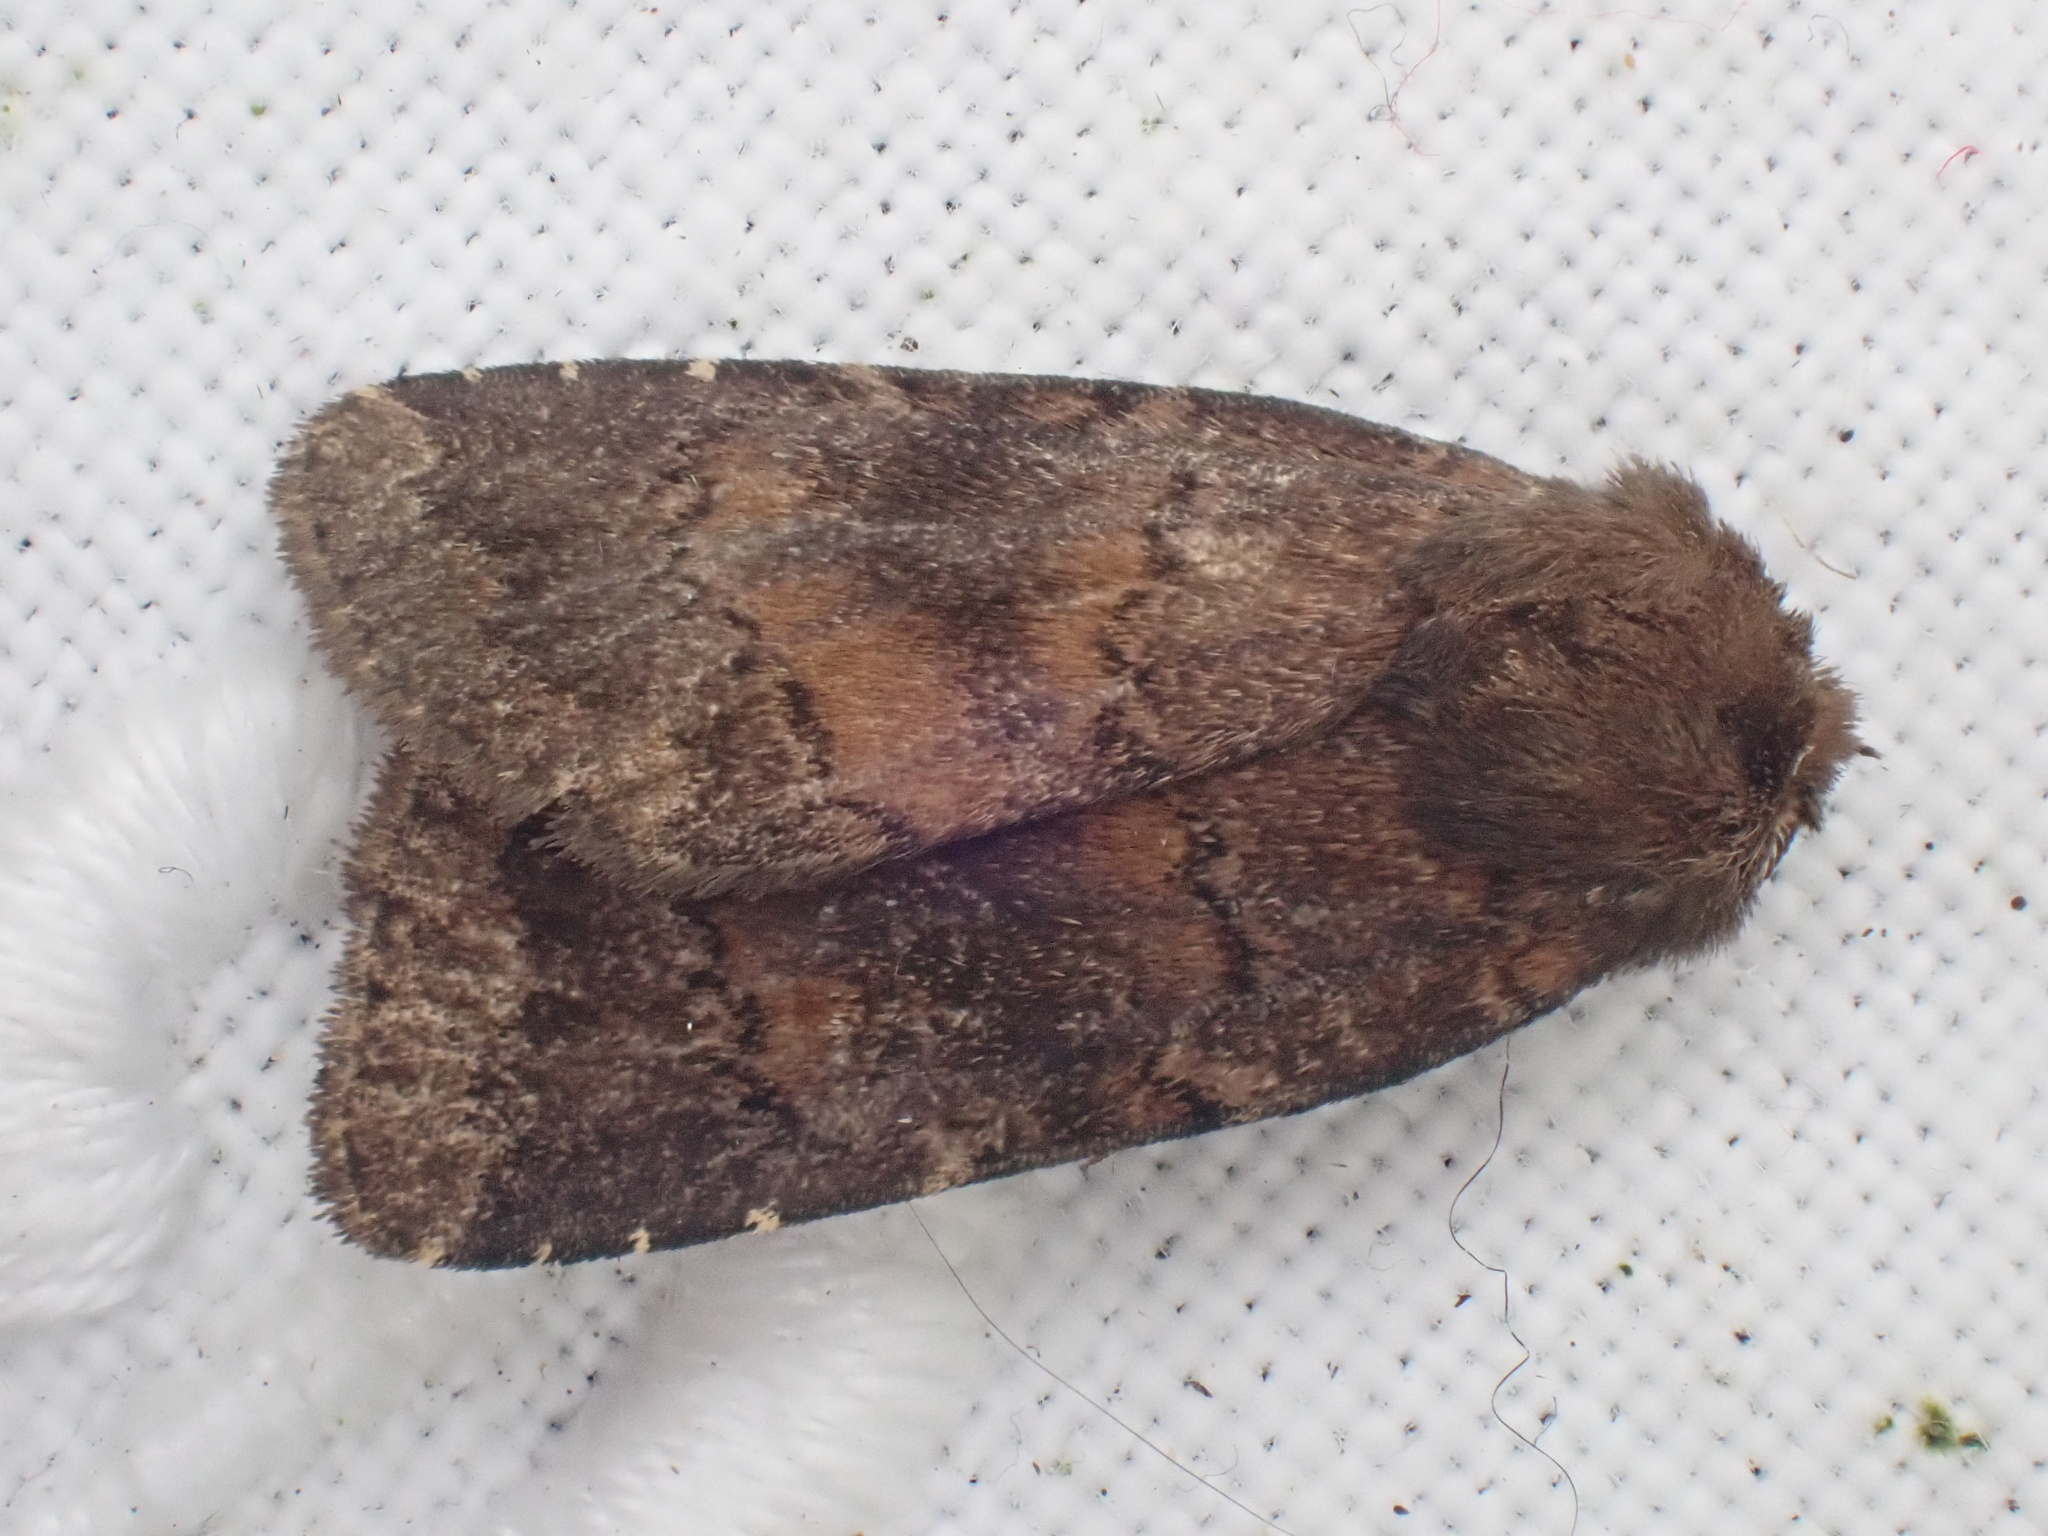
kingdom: Animalia
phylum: Arthropoda
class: Insecta
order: Lepidoptera
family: Noctuidae
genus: Charanyca
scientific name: Charanyca ferruginea
